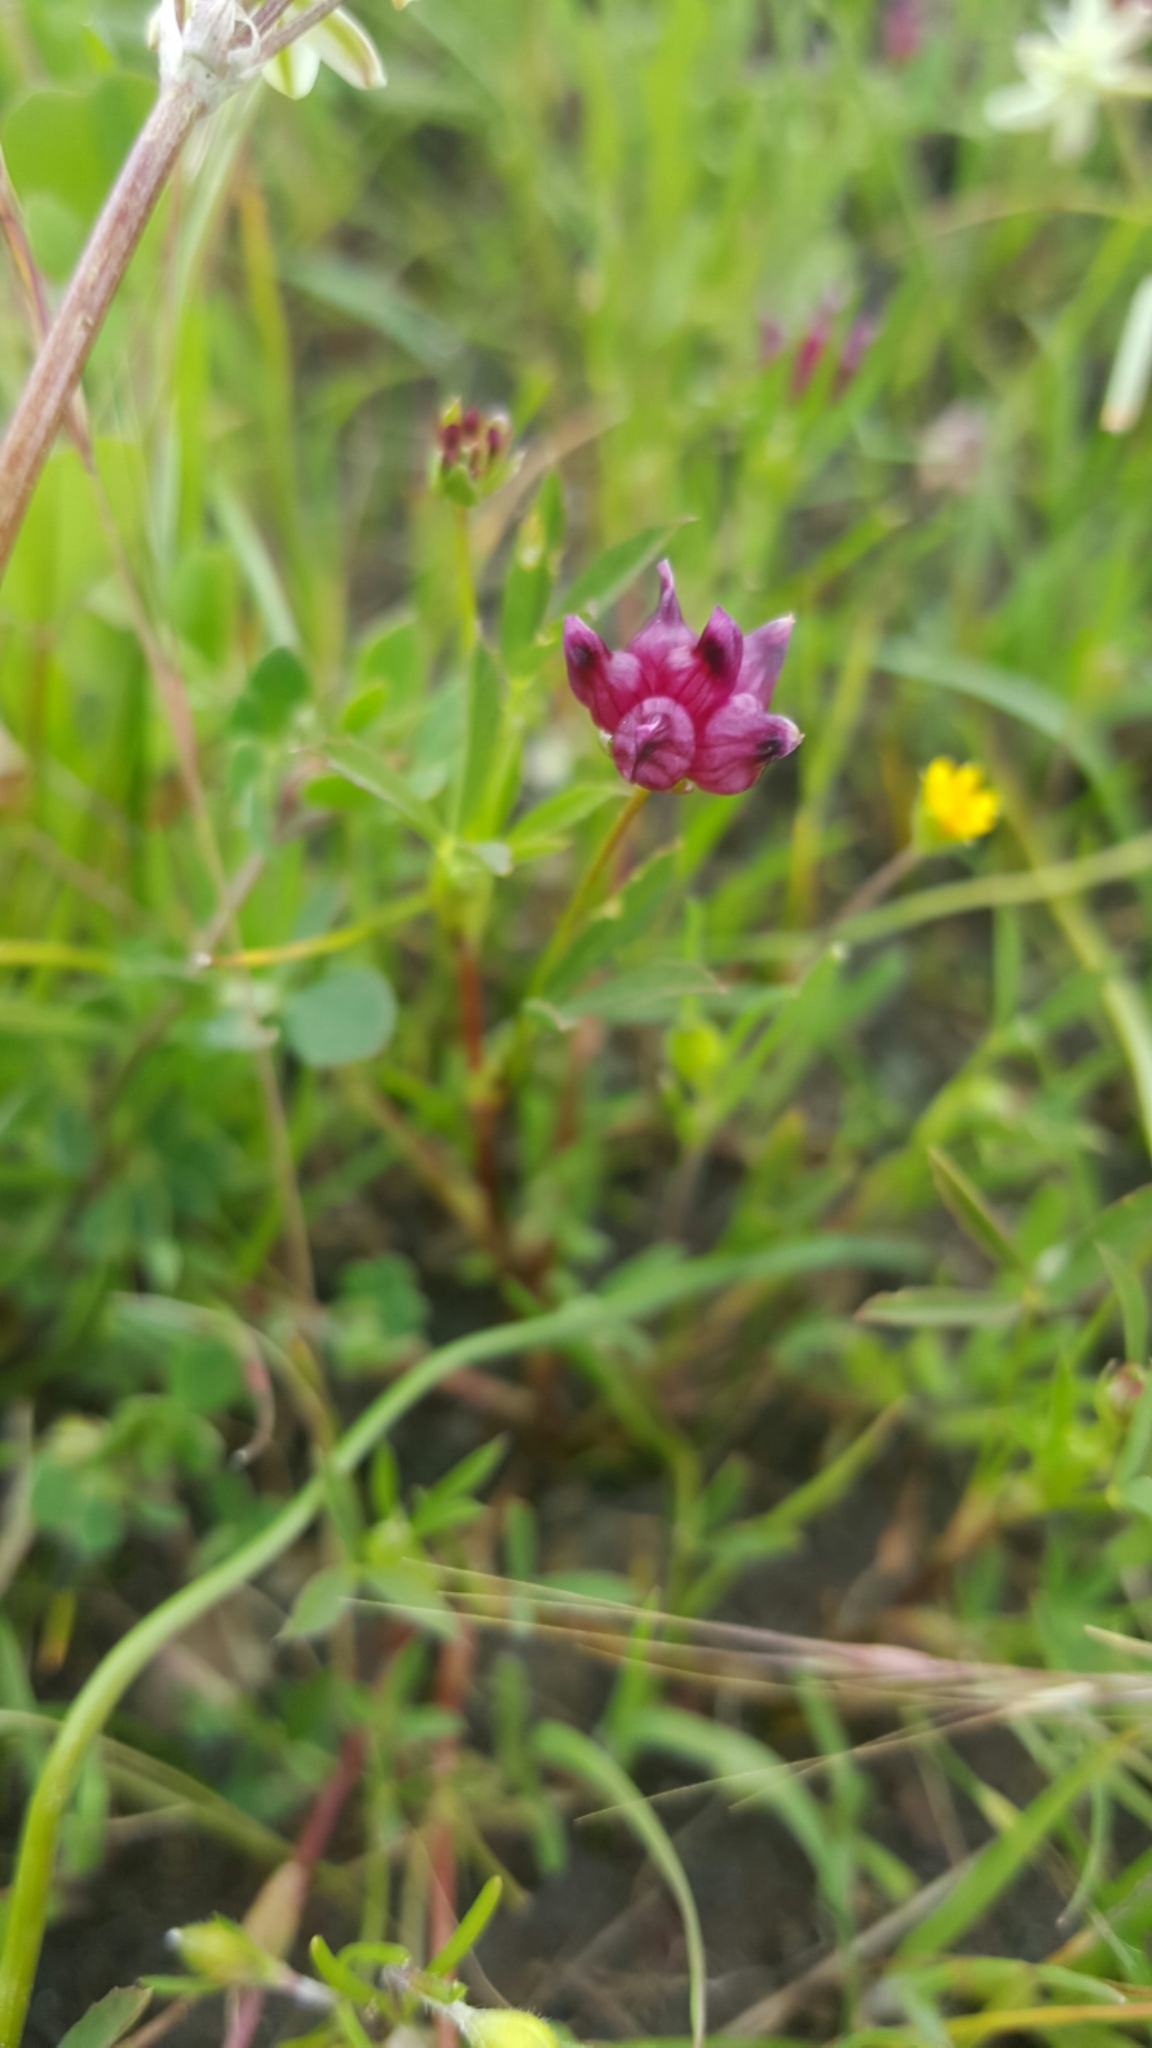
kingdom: Plantae
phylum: Tracheophyta
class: Magnoliopsida
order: Fabales
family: Fabaceae
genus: Trifolium
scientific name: Trifolium depauperatum
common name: Poverty clover
